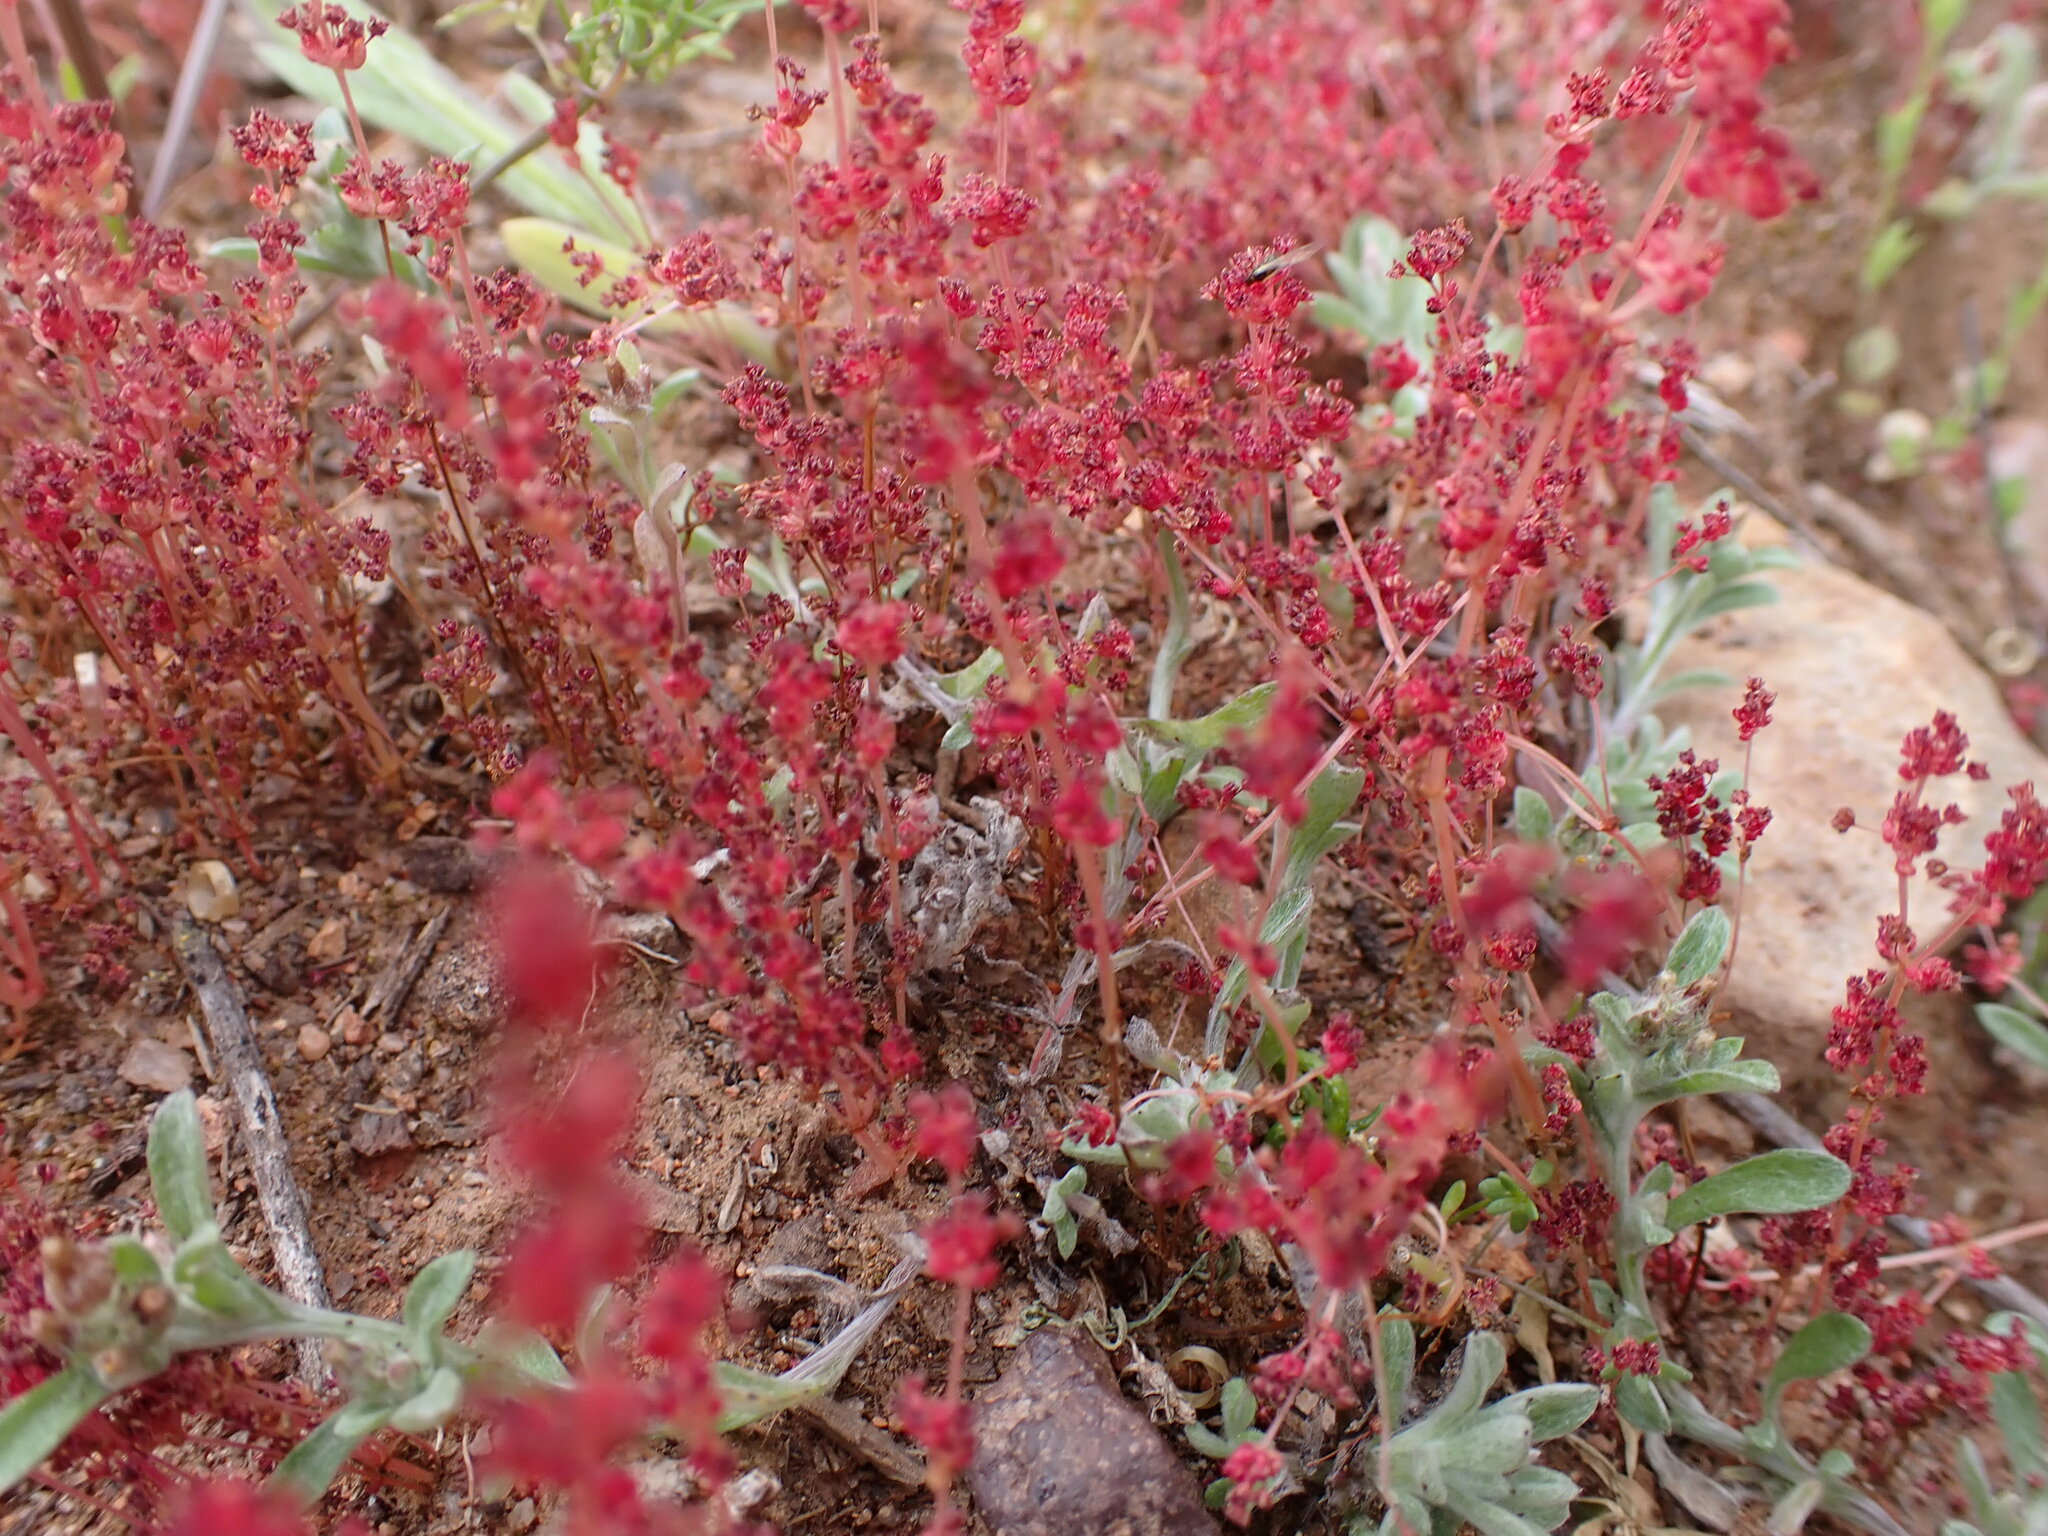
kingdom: Plantae
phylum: Tracheophyta
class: Magnoliopsida
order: Saxifragales
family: Crassulaceae
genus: Crassula
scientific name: Crassula connata
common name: Erect pygmyweed
